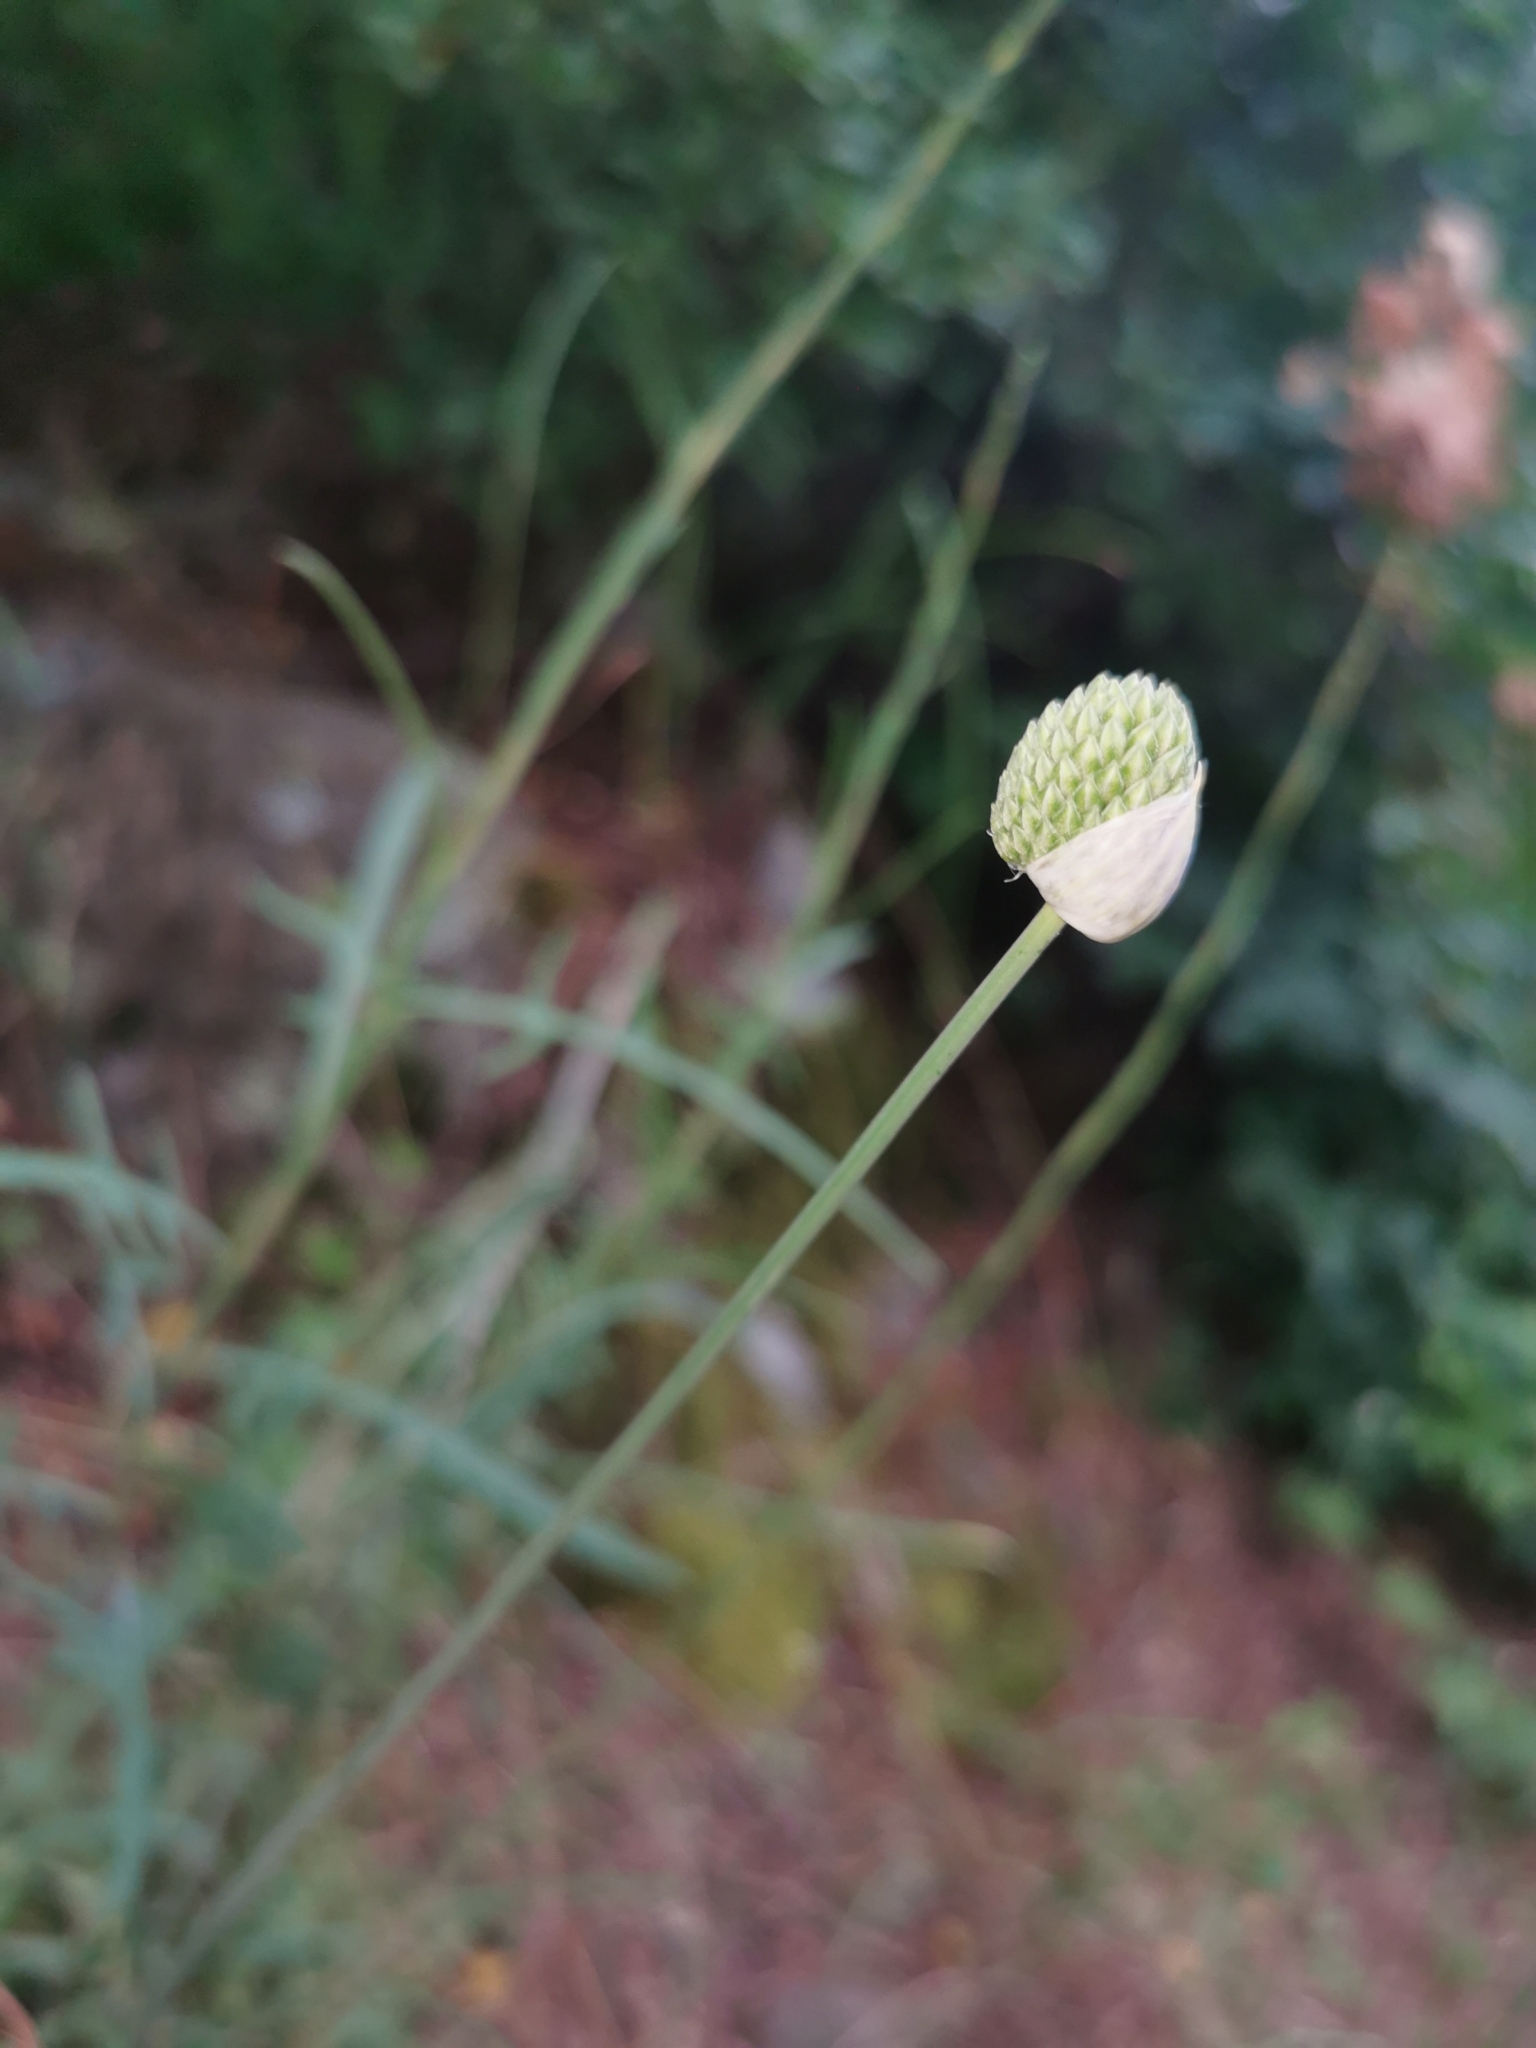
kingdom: Plantae
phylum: Tracheophyta
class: Liliopsida
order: Asparagales
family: Amaryllidaceae
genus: Allium
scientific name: Allium sphaerocephalon
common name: Round-headed leek
